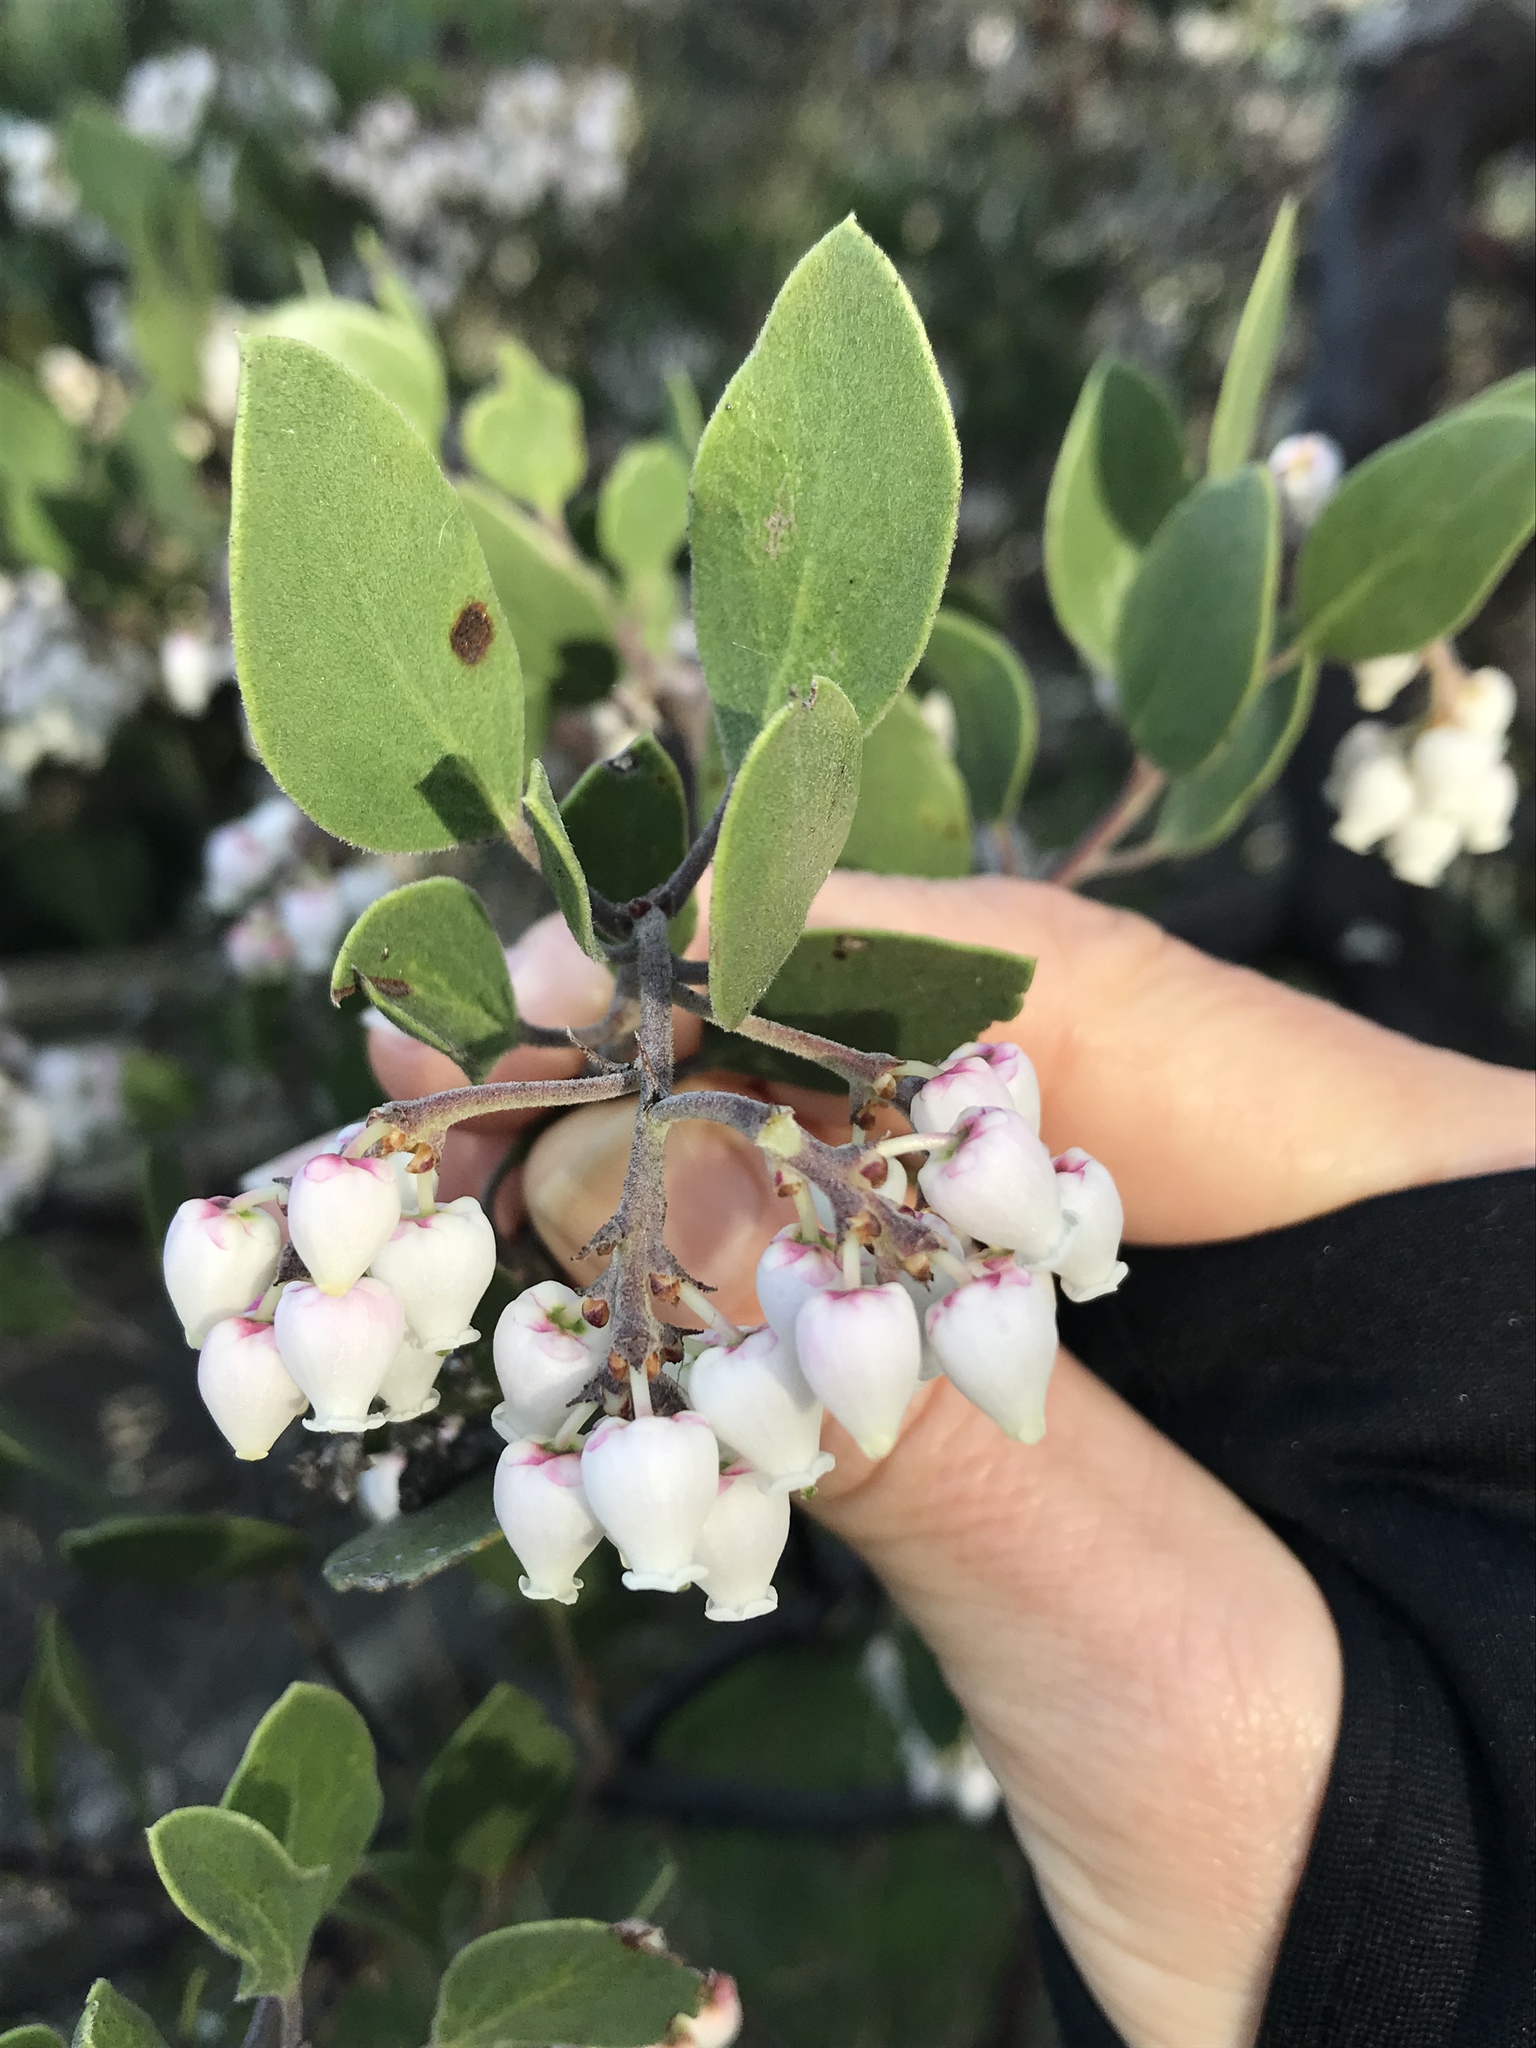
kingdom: Plantae
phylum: Tracheophyta
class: Magnoliopsida
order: Ericales
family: Ericaceae
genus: Arctostaphylos
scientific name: Arctostaphylos manzanita
